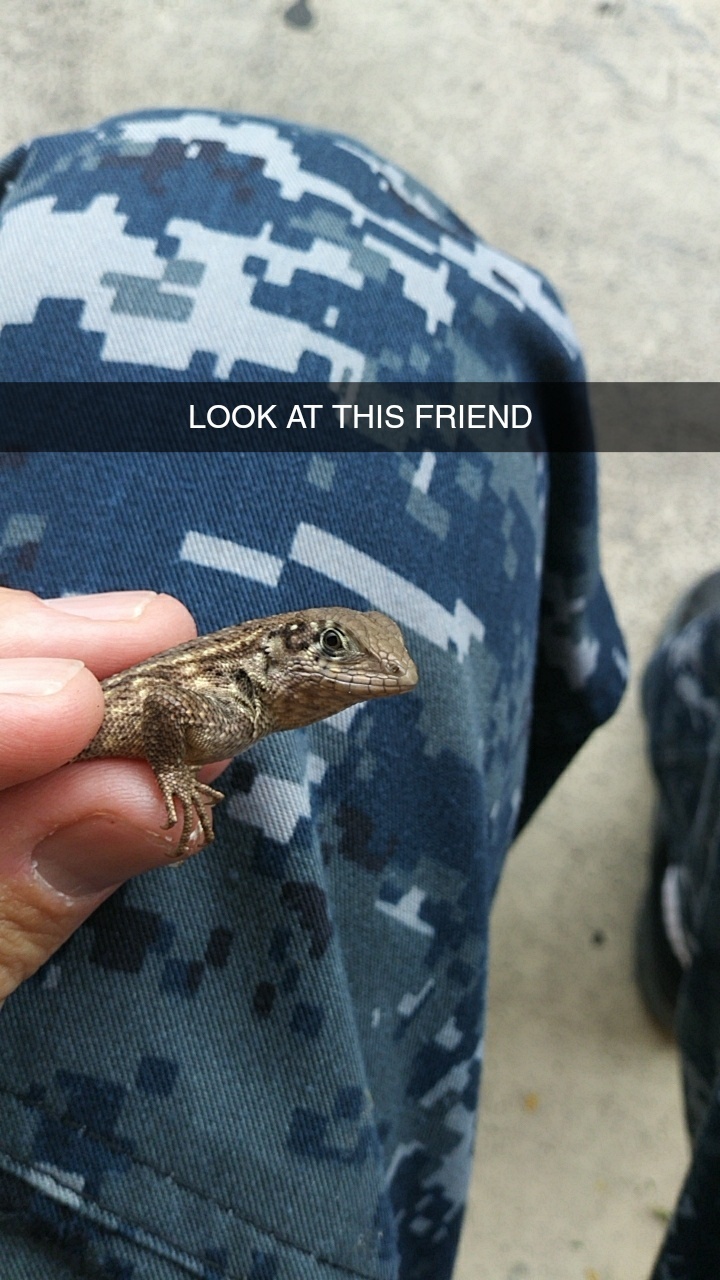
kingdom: Animalia
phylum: Chordata
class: Squamata
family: Leiocephalidae
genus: Leiocephalus
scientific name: Leiocephalus carinatus
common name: Northern curly-tailed lizard
